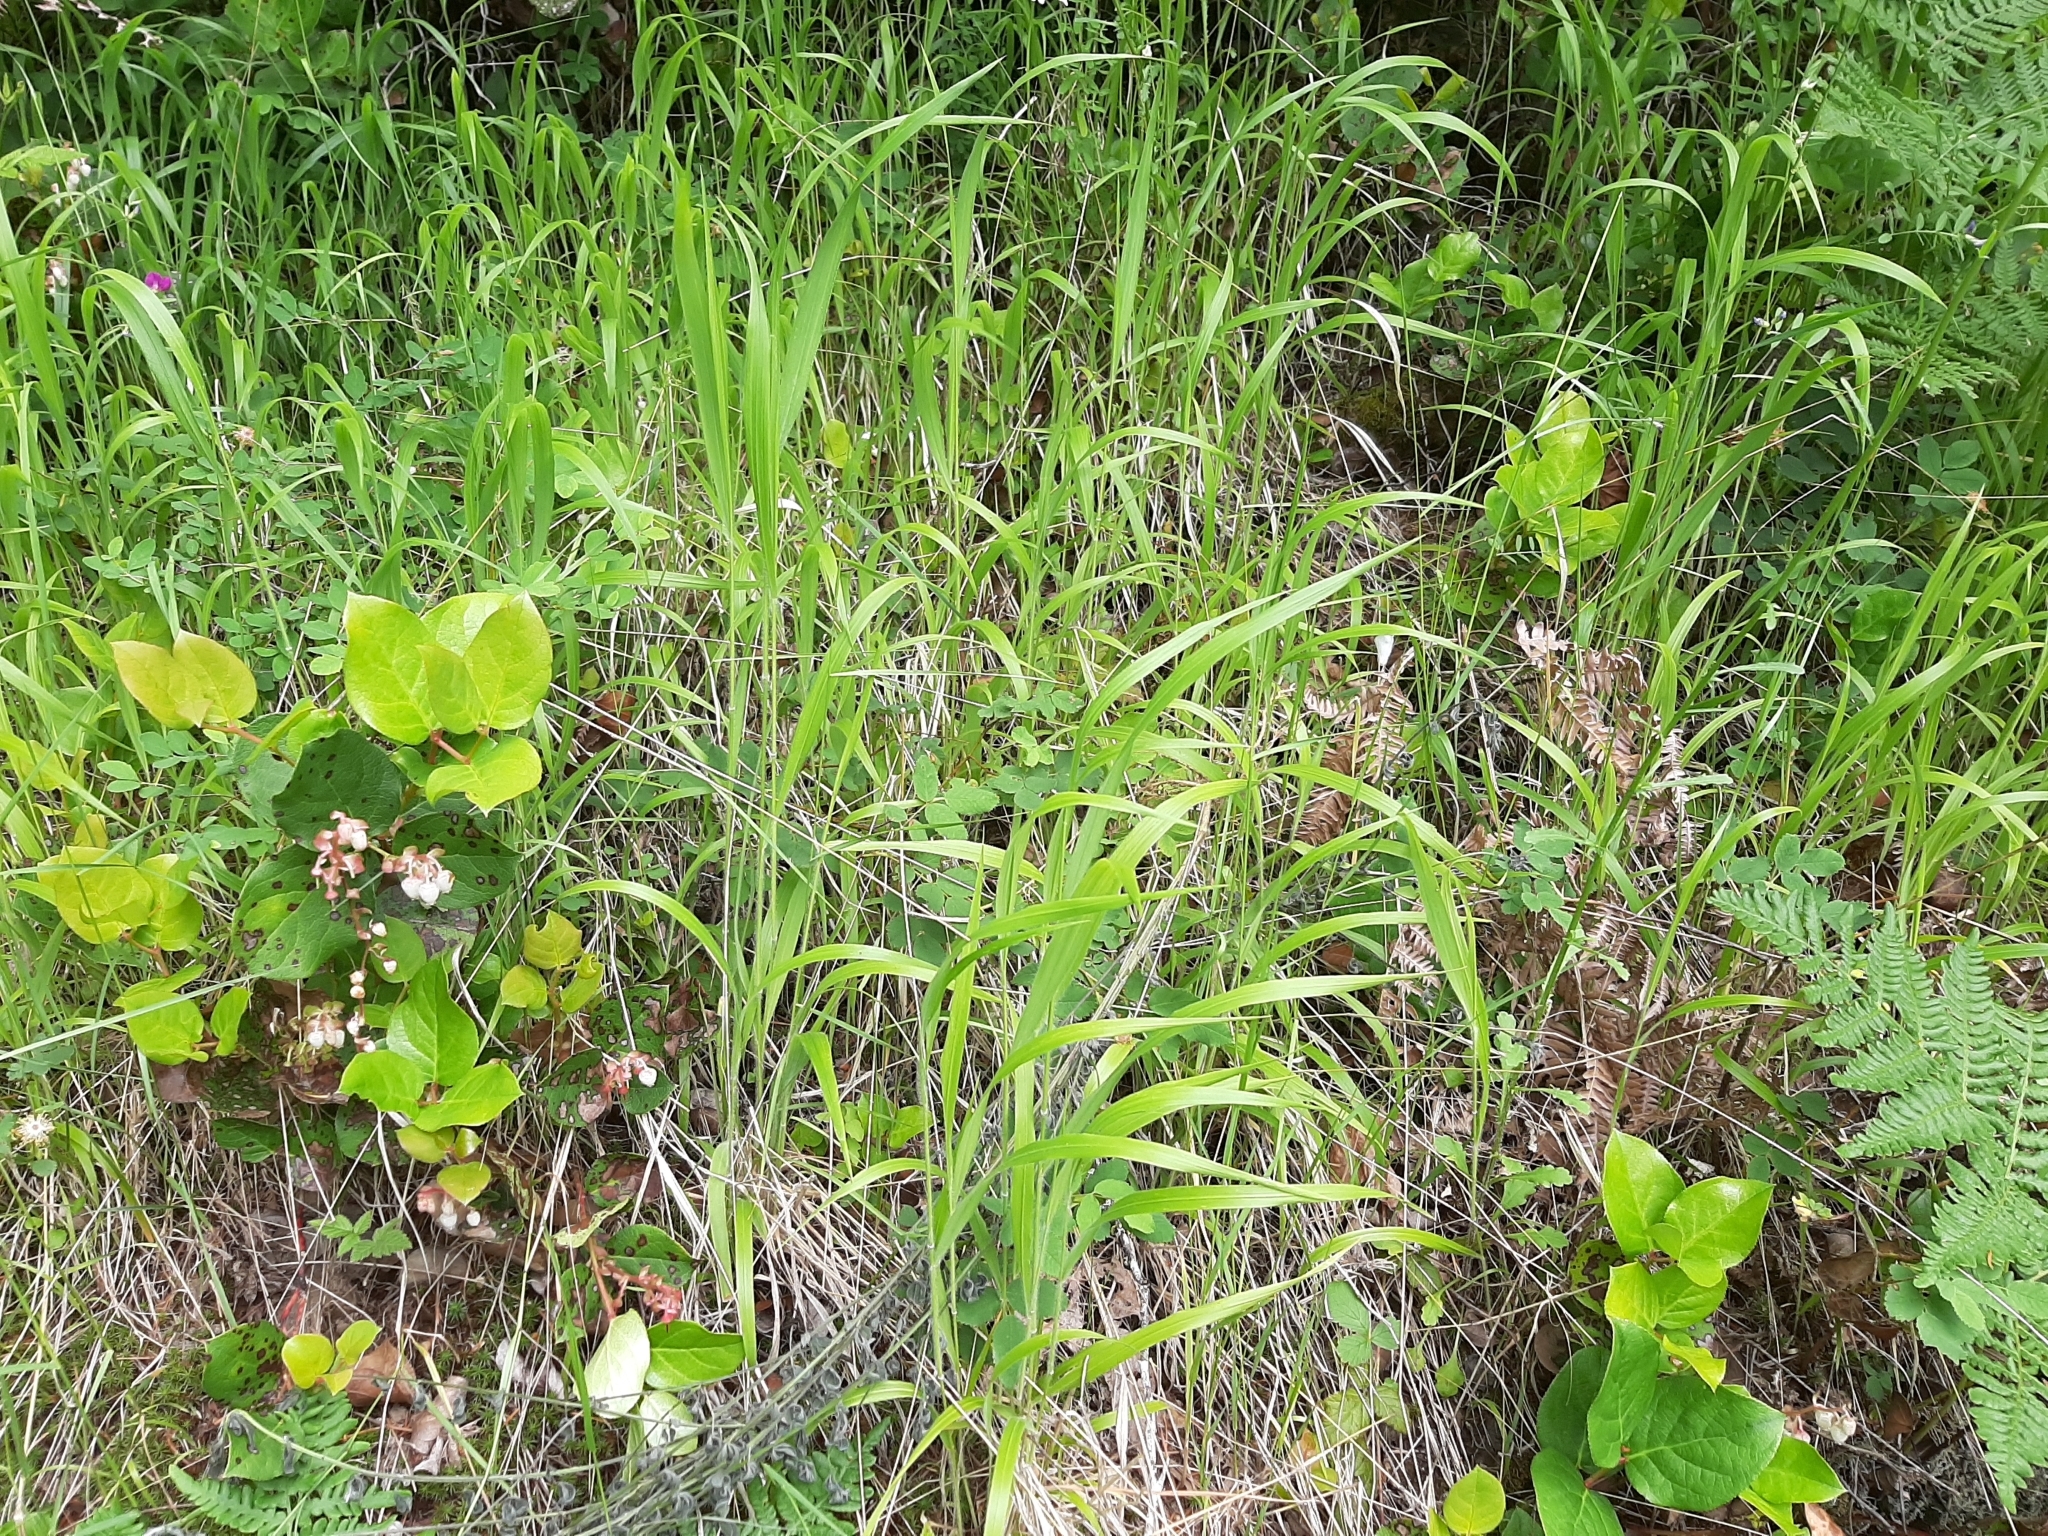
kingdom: Plantae
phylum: Tracheophyta
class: Liliopsida
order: Poales
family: Poaceae
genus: Brachypodium
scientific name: Brachypodium sylvaticum
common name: False-brome
